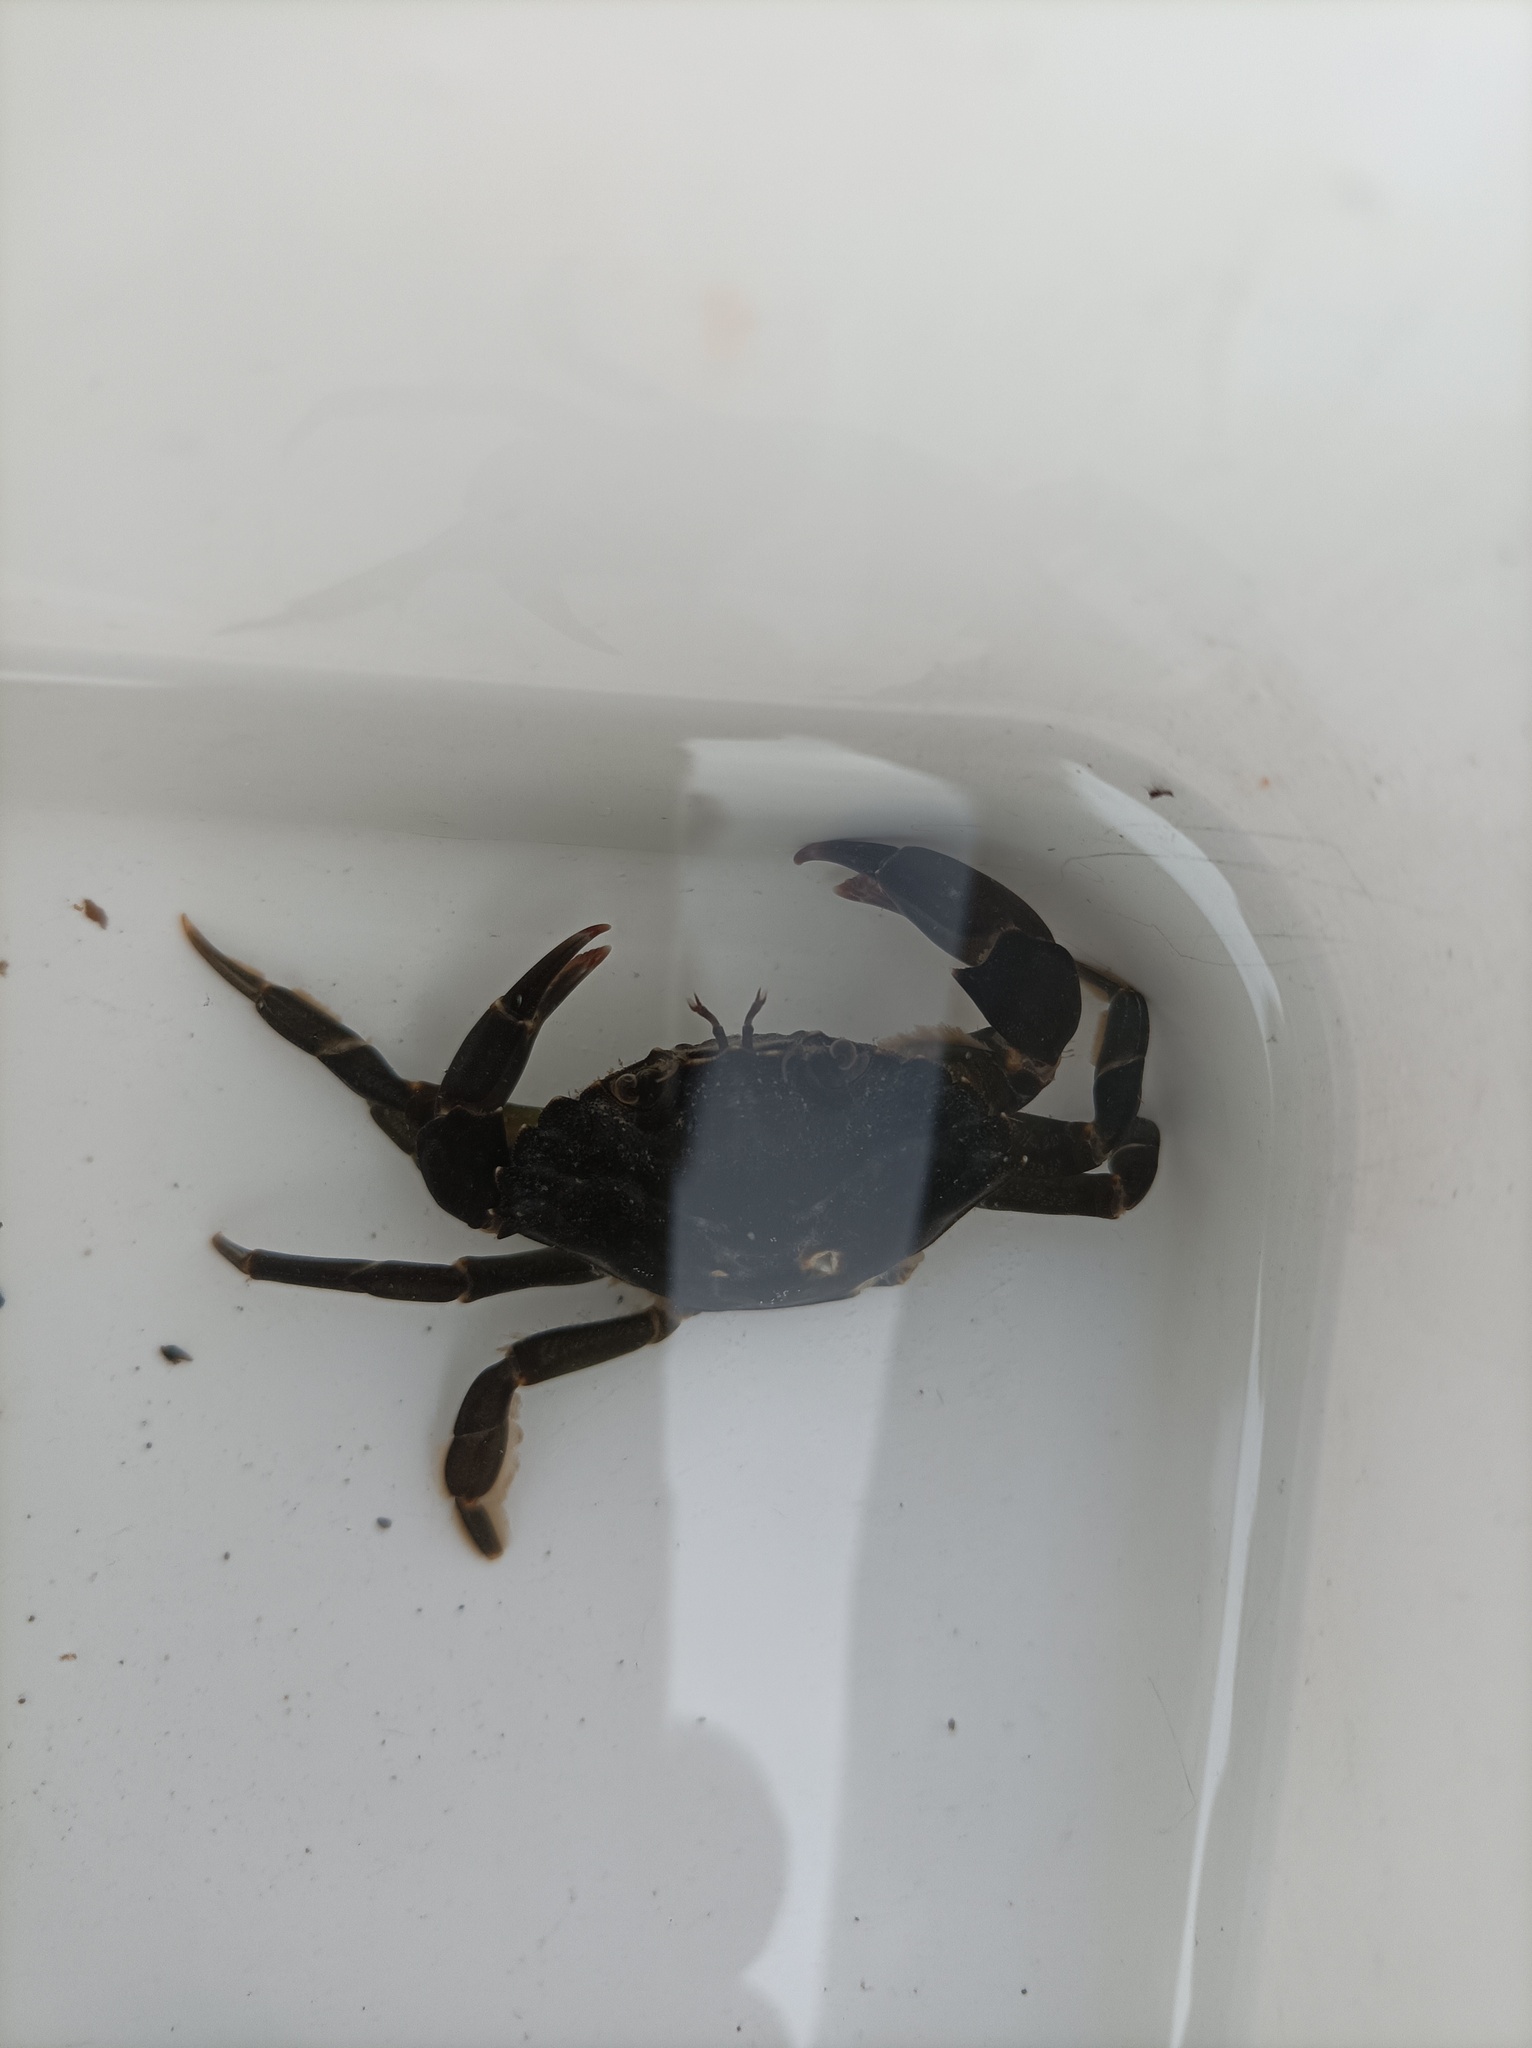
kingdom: Animalia
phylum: Arthropoda
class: Malacostraca
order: Decapoda
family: Carcinidae
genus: Carcinus
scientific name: Carcinus maenas
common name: European green crab
